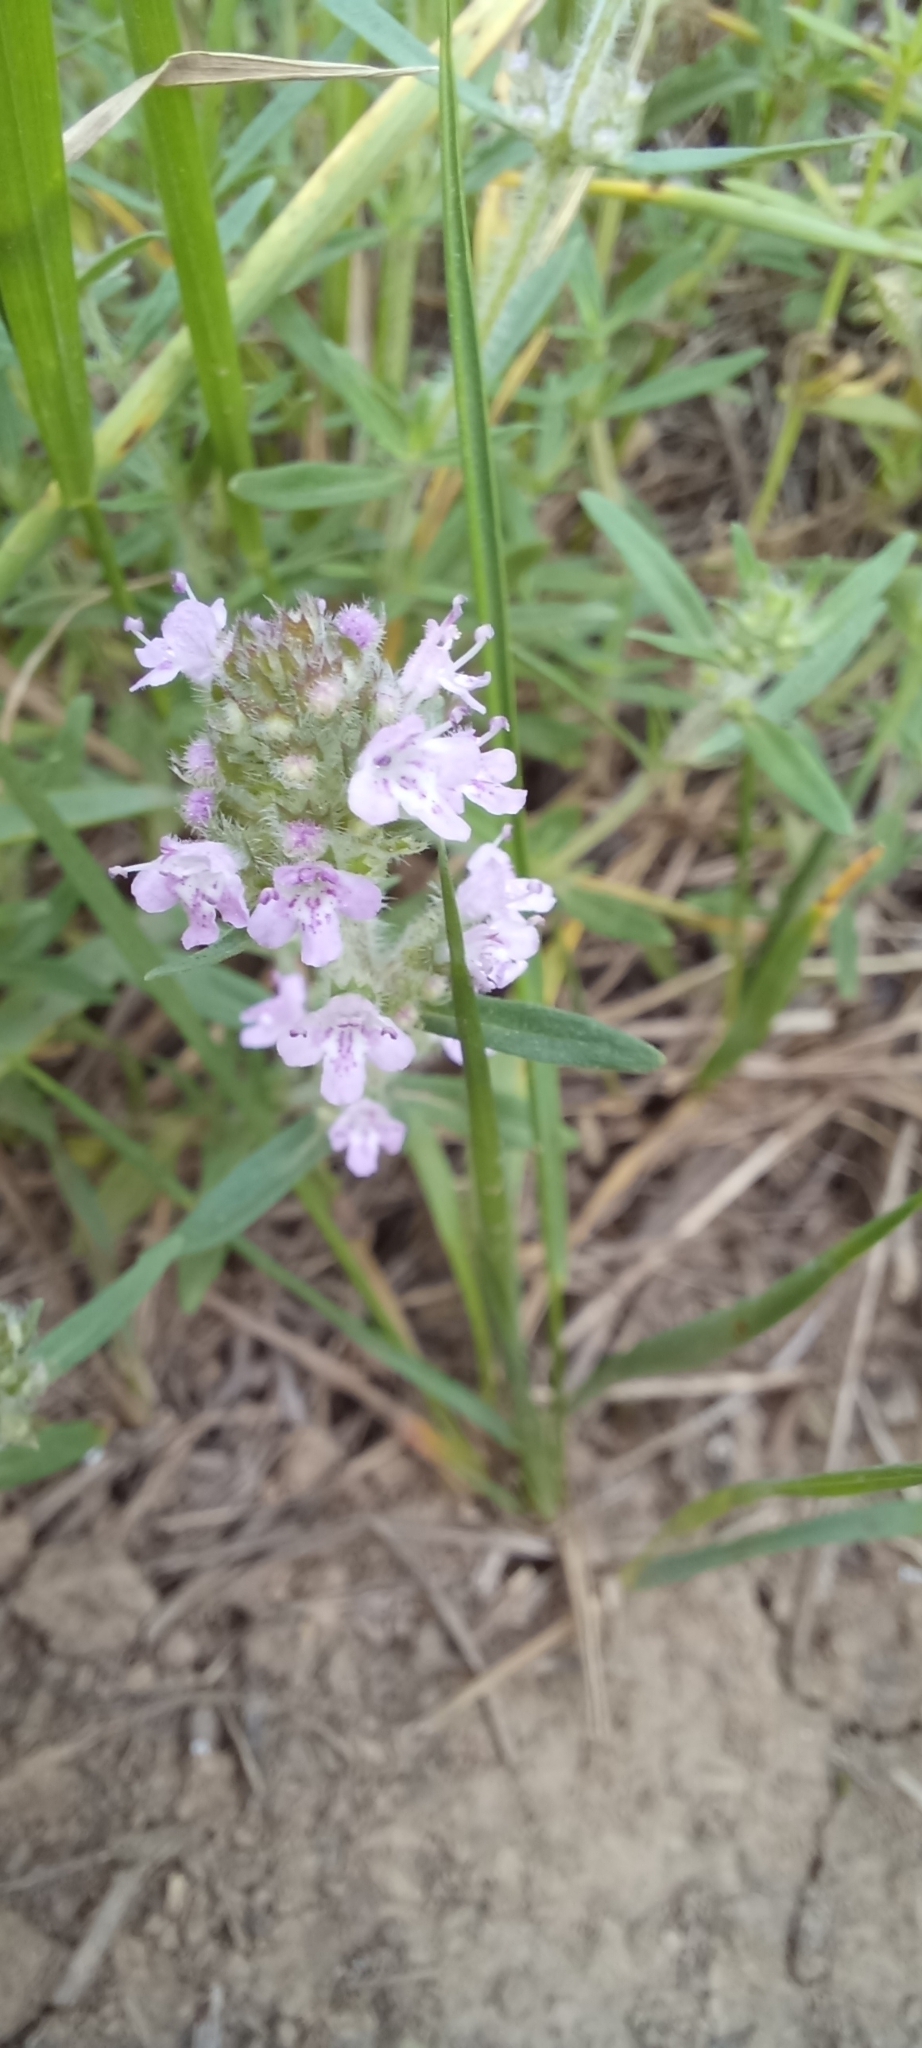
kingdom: Plantae
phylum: Tracheophyta
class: Magnoliopsida
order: Lamiales
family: Lamiaceae
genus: Thymus
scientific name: Thymus pannonicus
